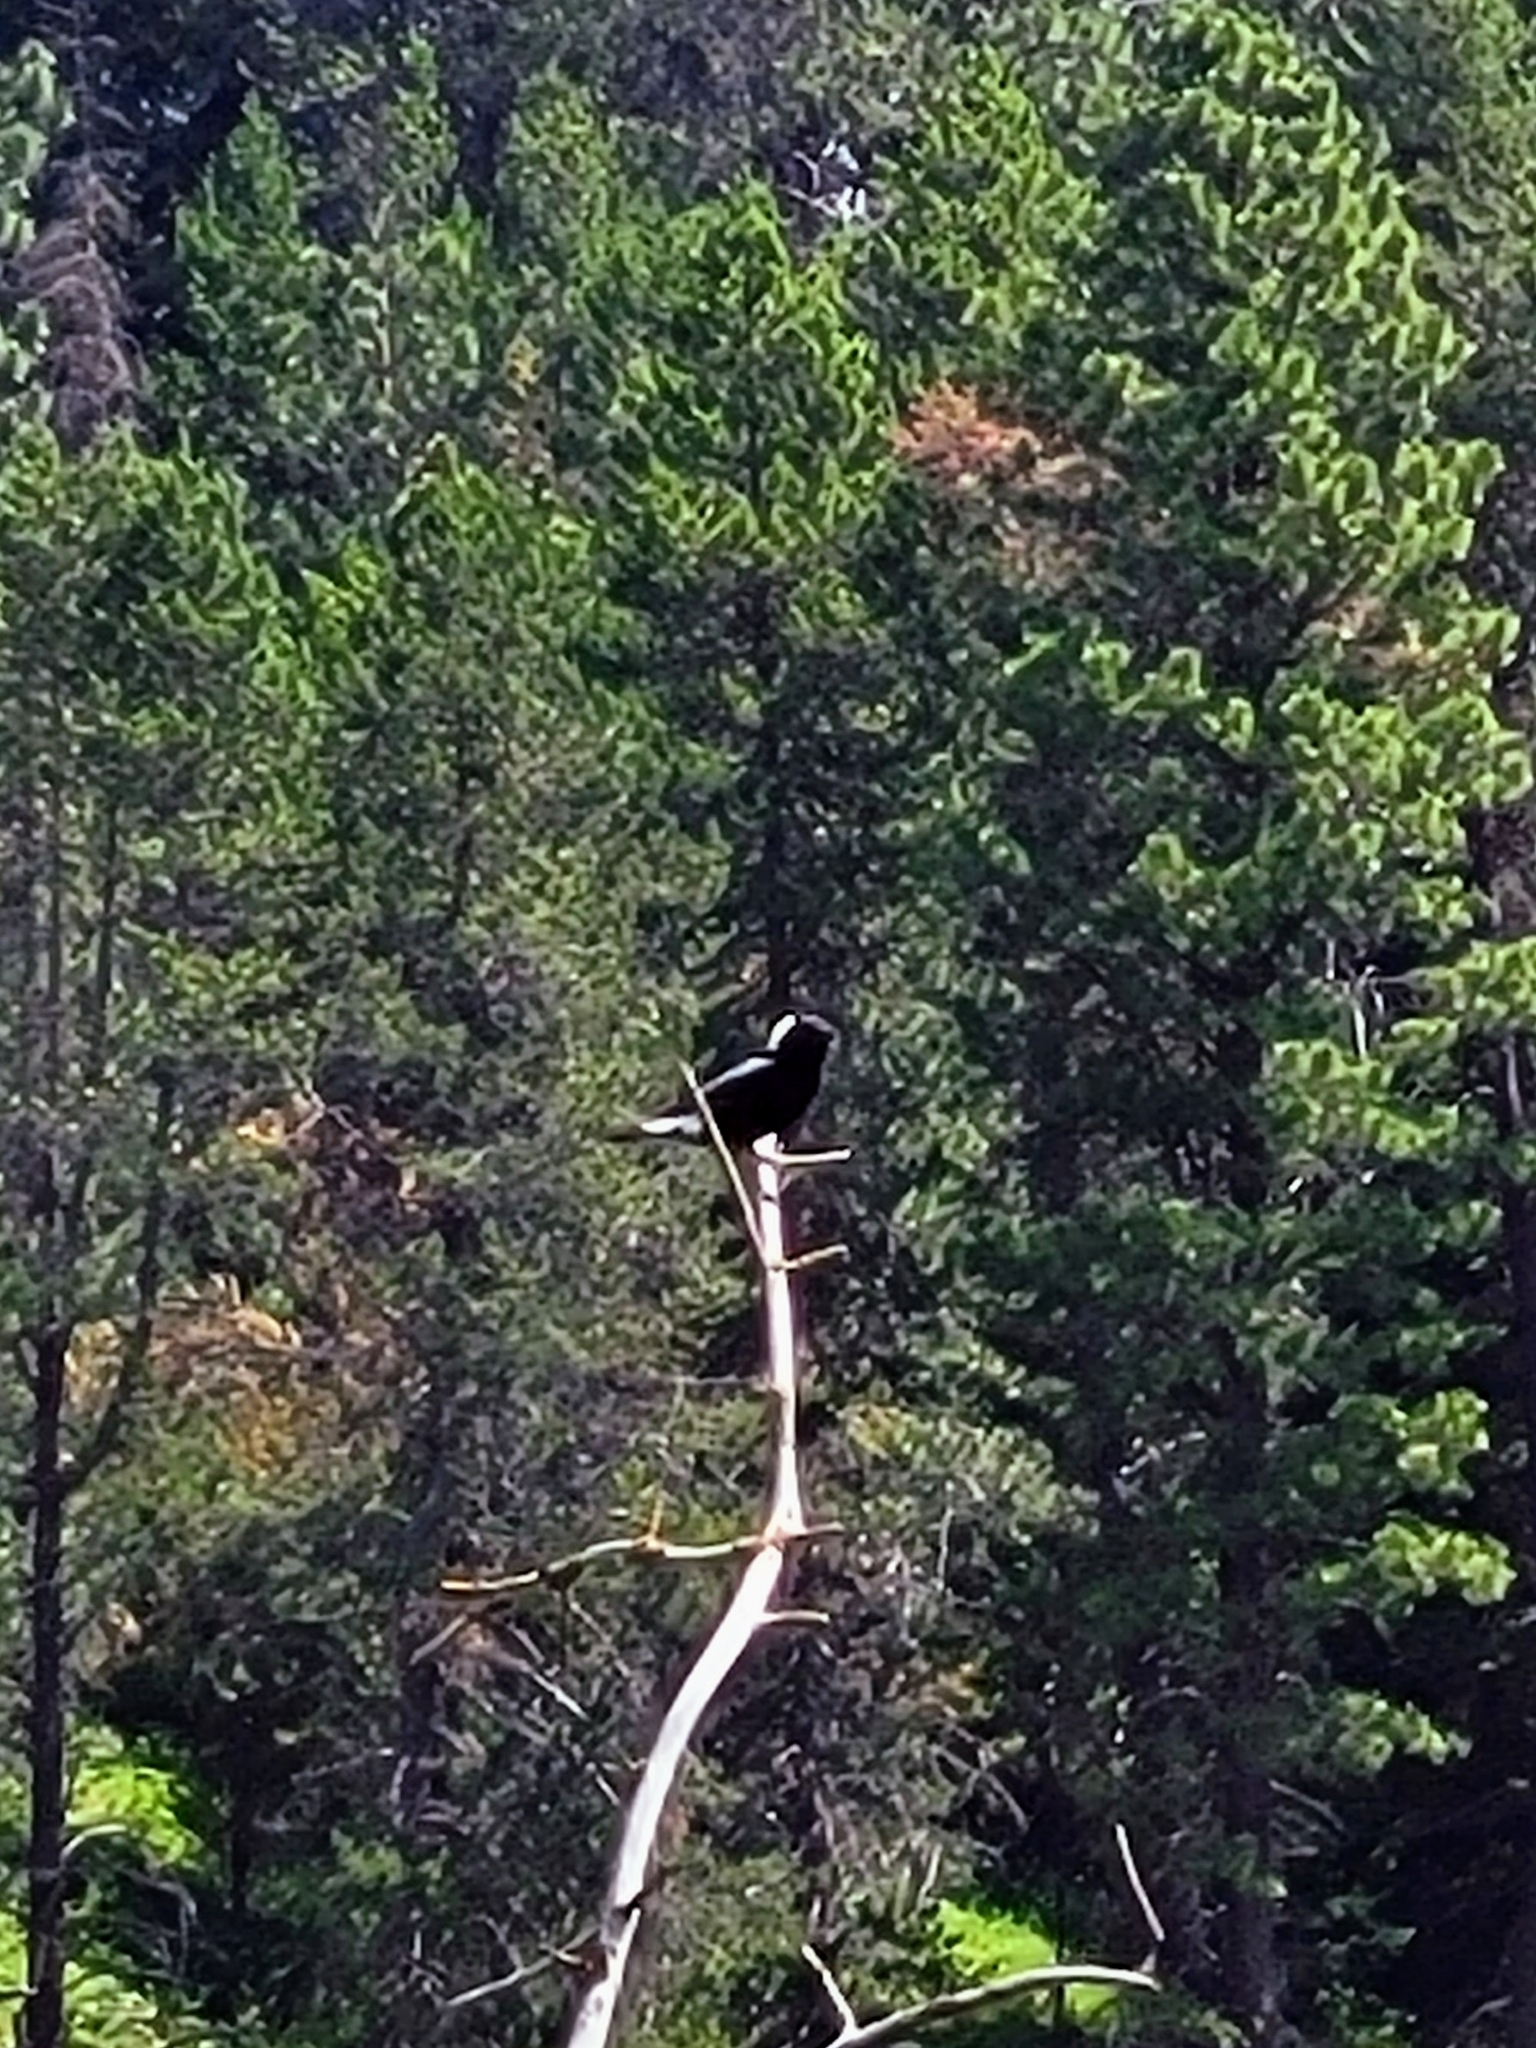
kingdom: Animalia
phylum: Chordata
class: Aves
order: Passeriformes
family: Icteridae
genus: Dolichonyx
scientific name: Dolichonyx oryzivorus
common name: Bobolink
